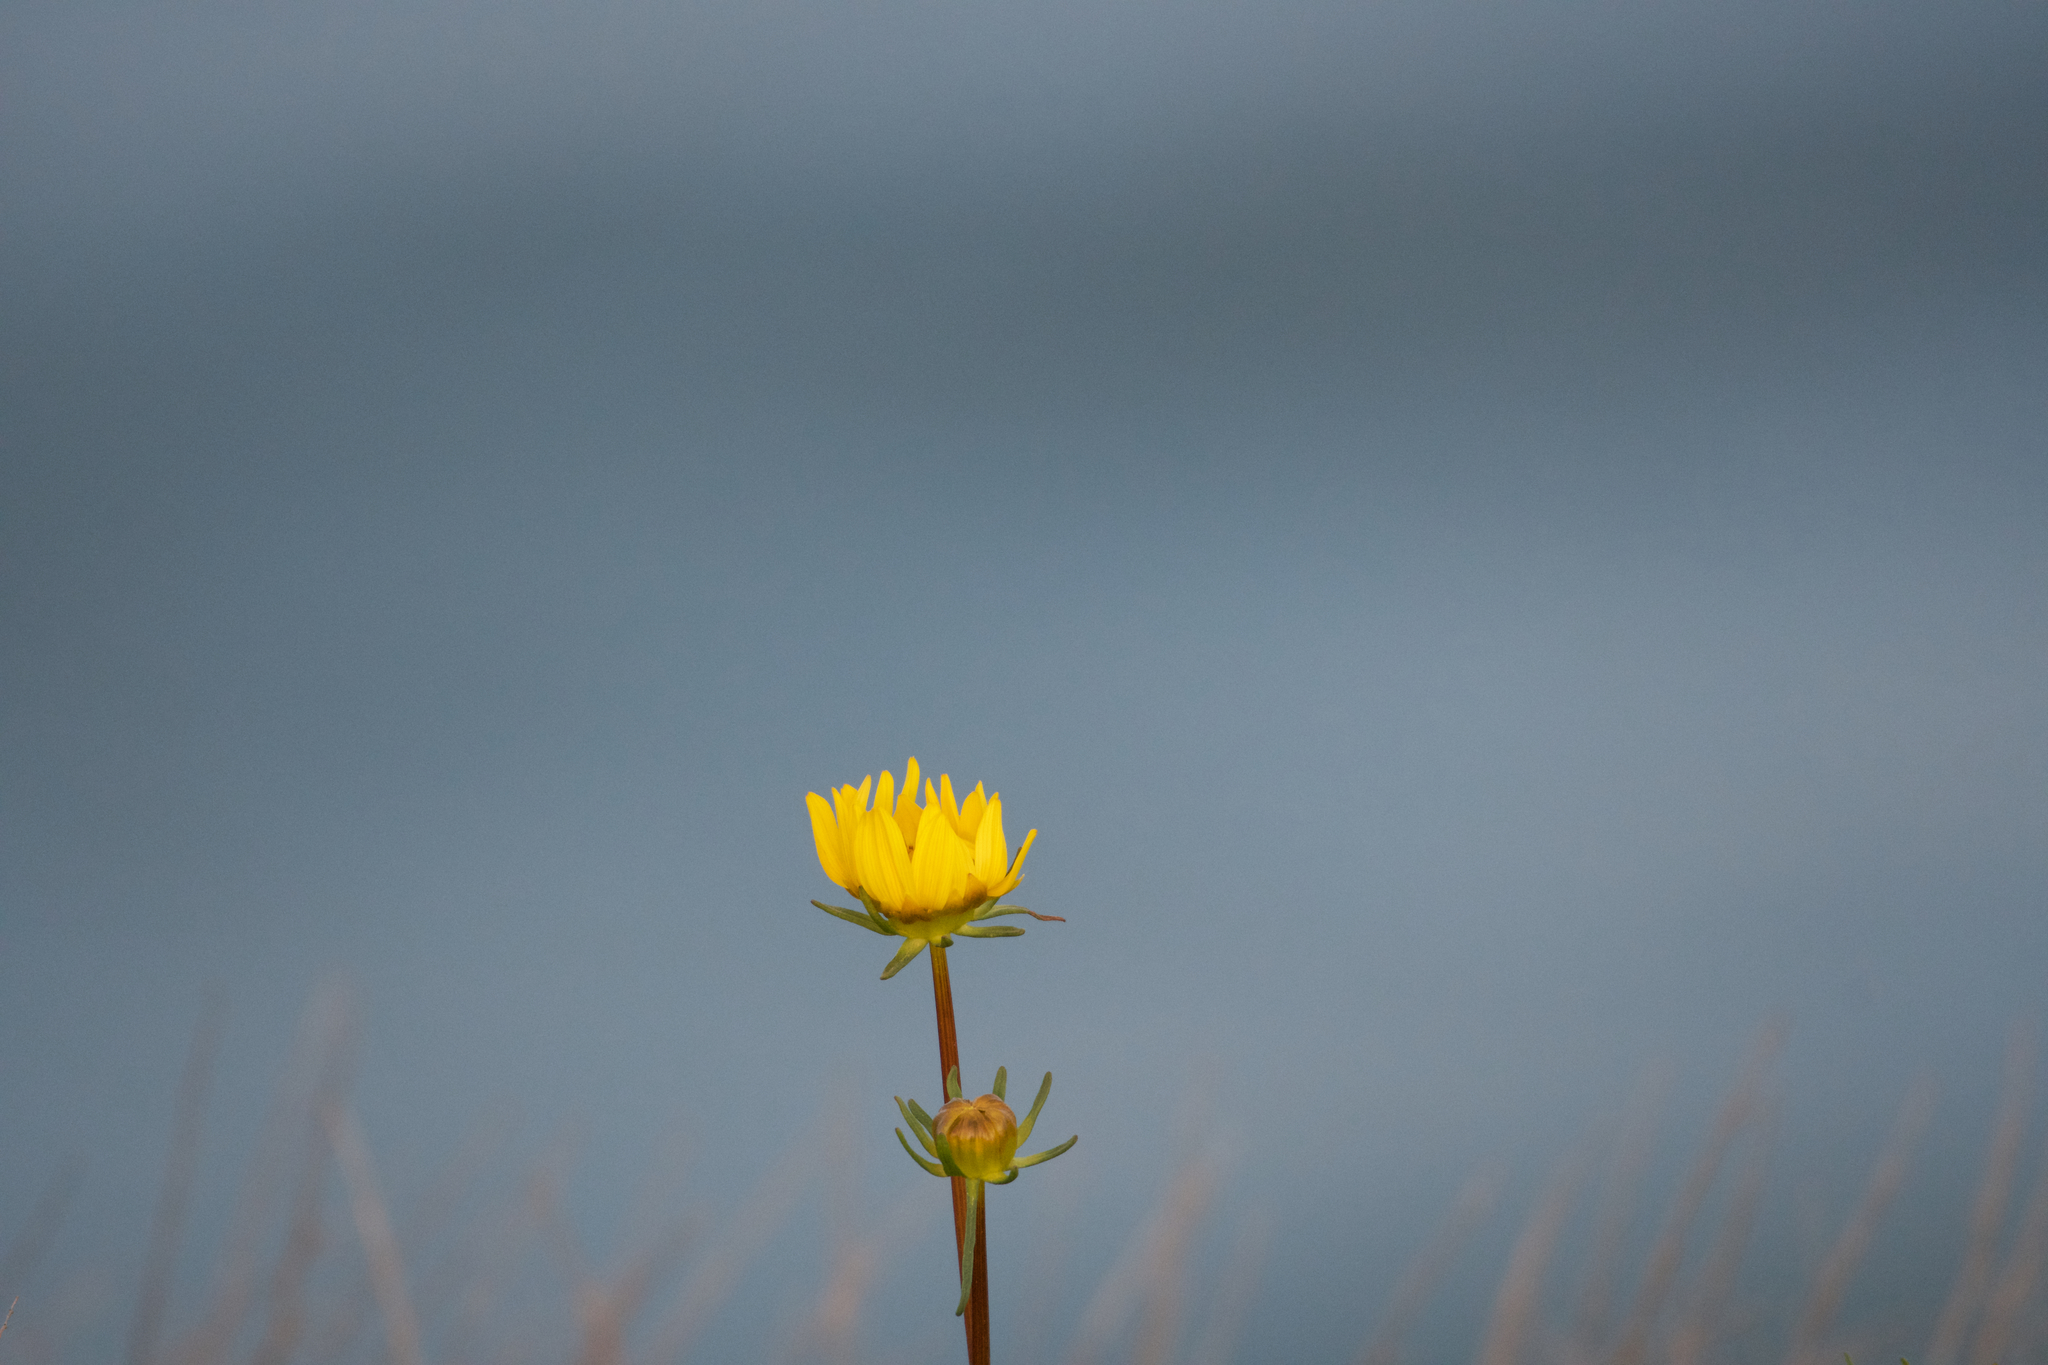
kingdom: Plantae
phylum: Tracheophyta
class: Magnoliopsida
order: Asterales
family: Asteraceae
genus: Coreopsis
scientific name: Coreopsis maritima
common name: Sea-dahlia
